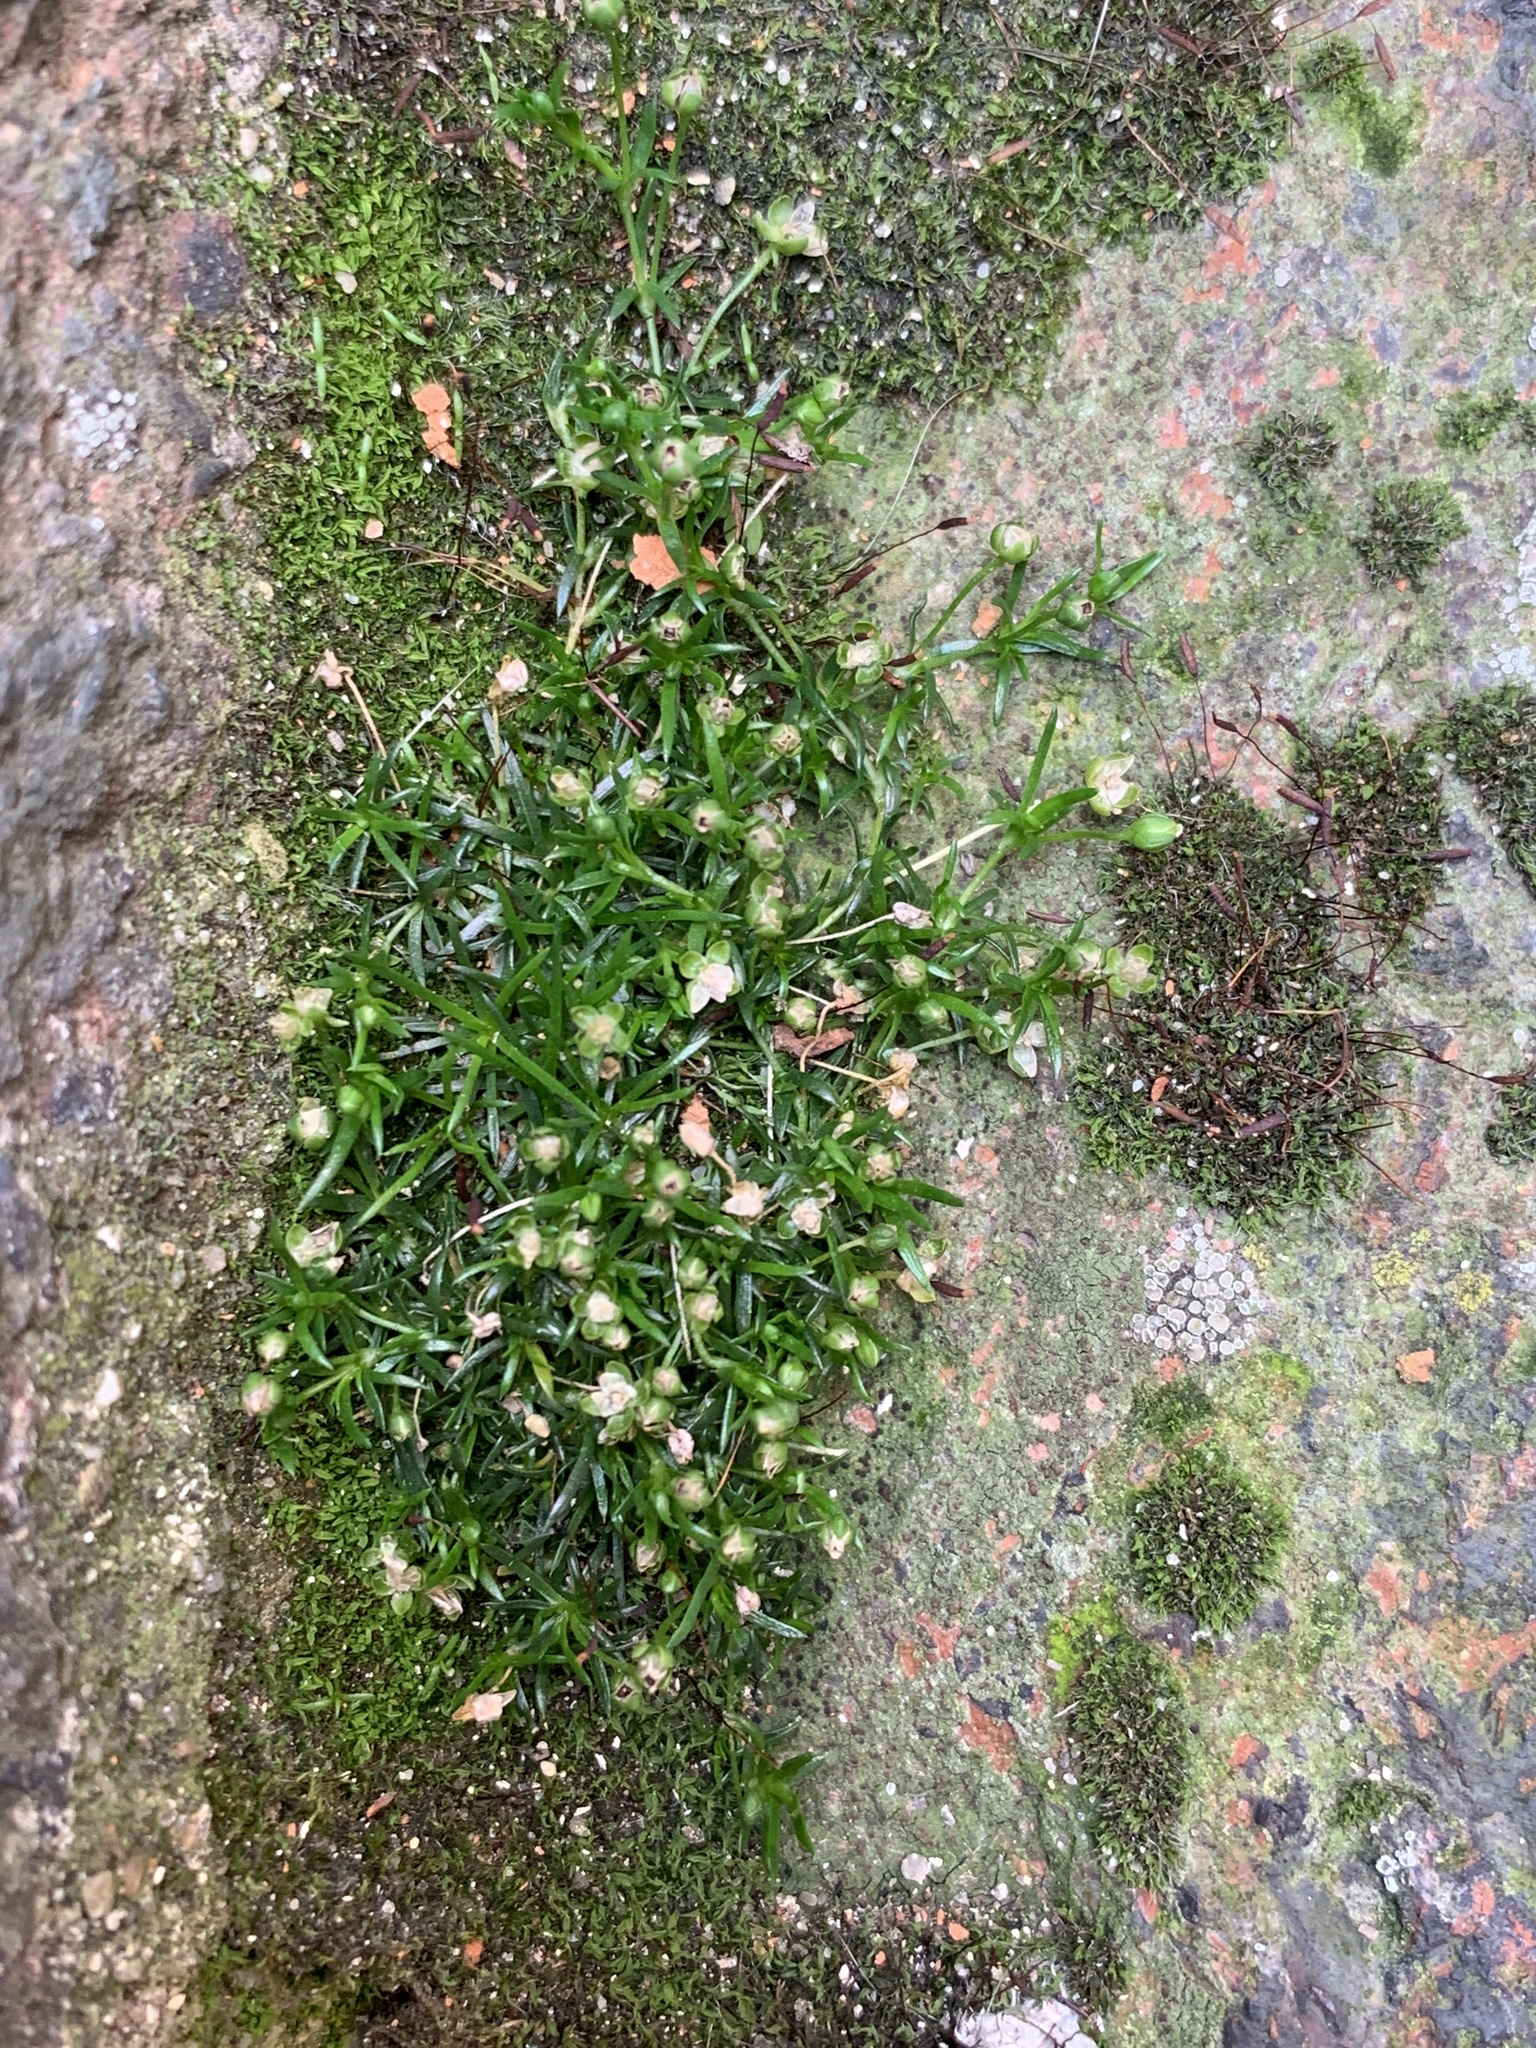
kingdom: Plantae
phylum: Tracheophyta
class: Magnoliopsida
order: Caryophyllales
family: Caryophyllaceae
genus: Sagina
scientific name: Sagina procumbens
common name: Procumbent pearlwort
